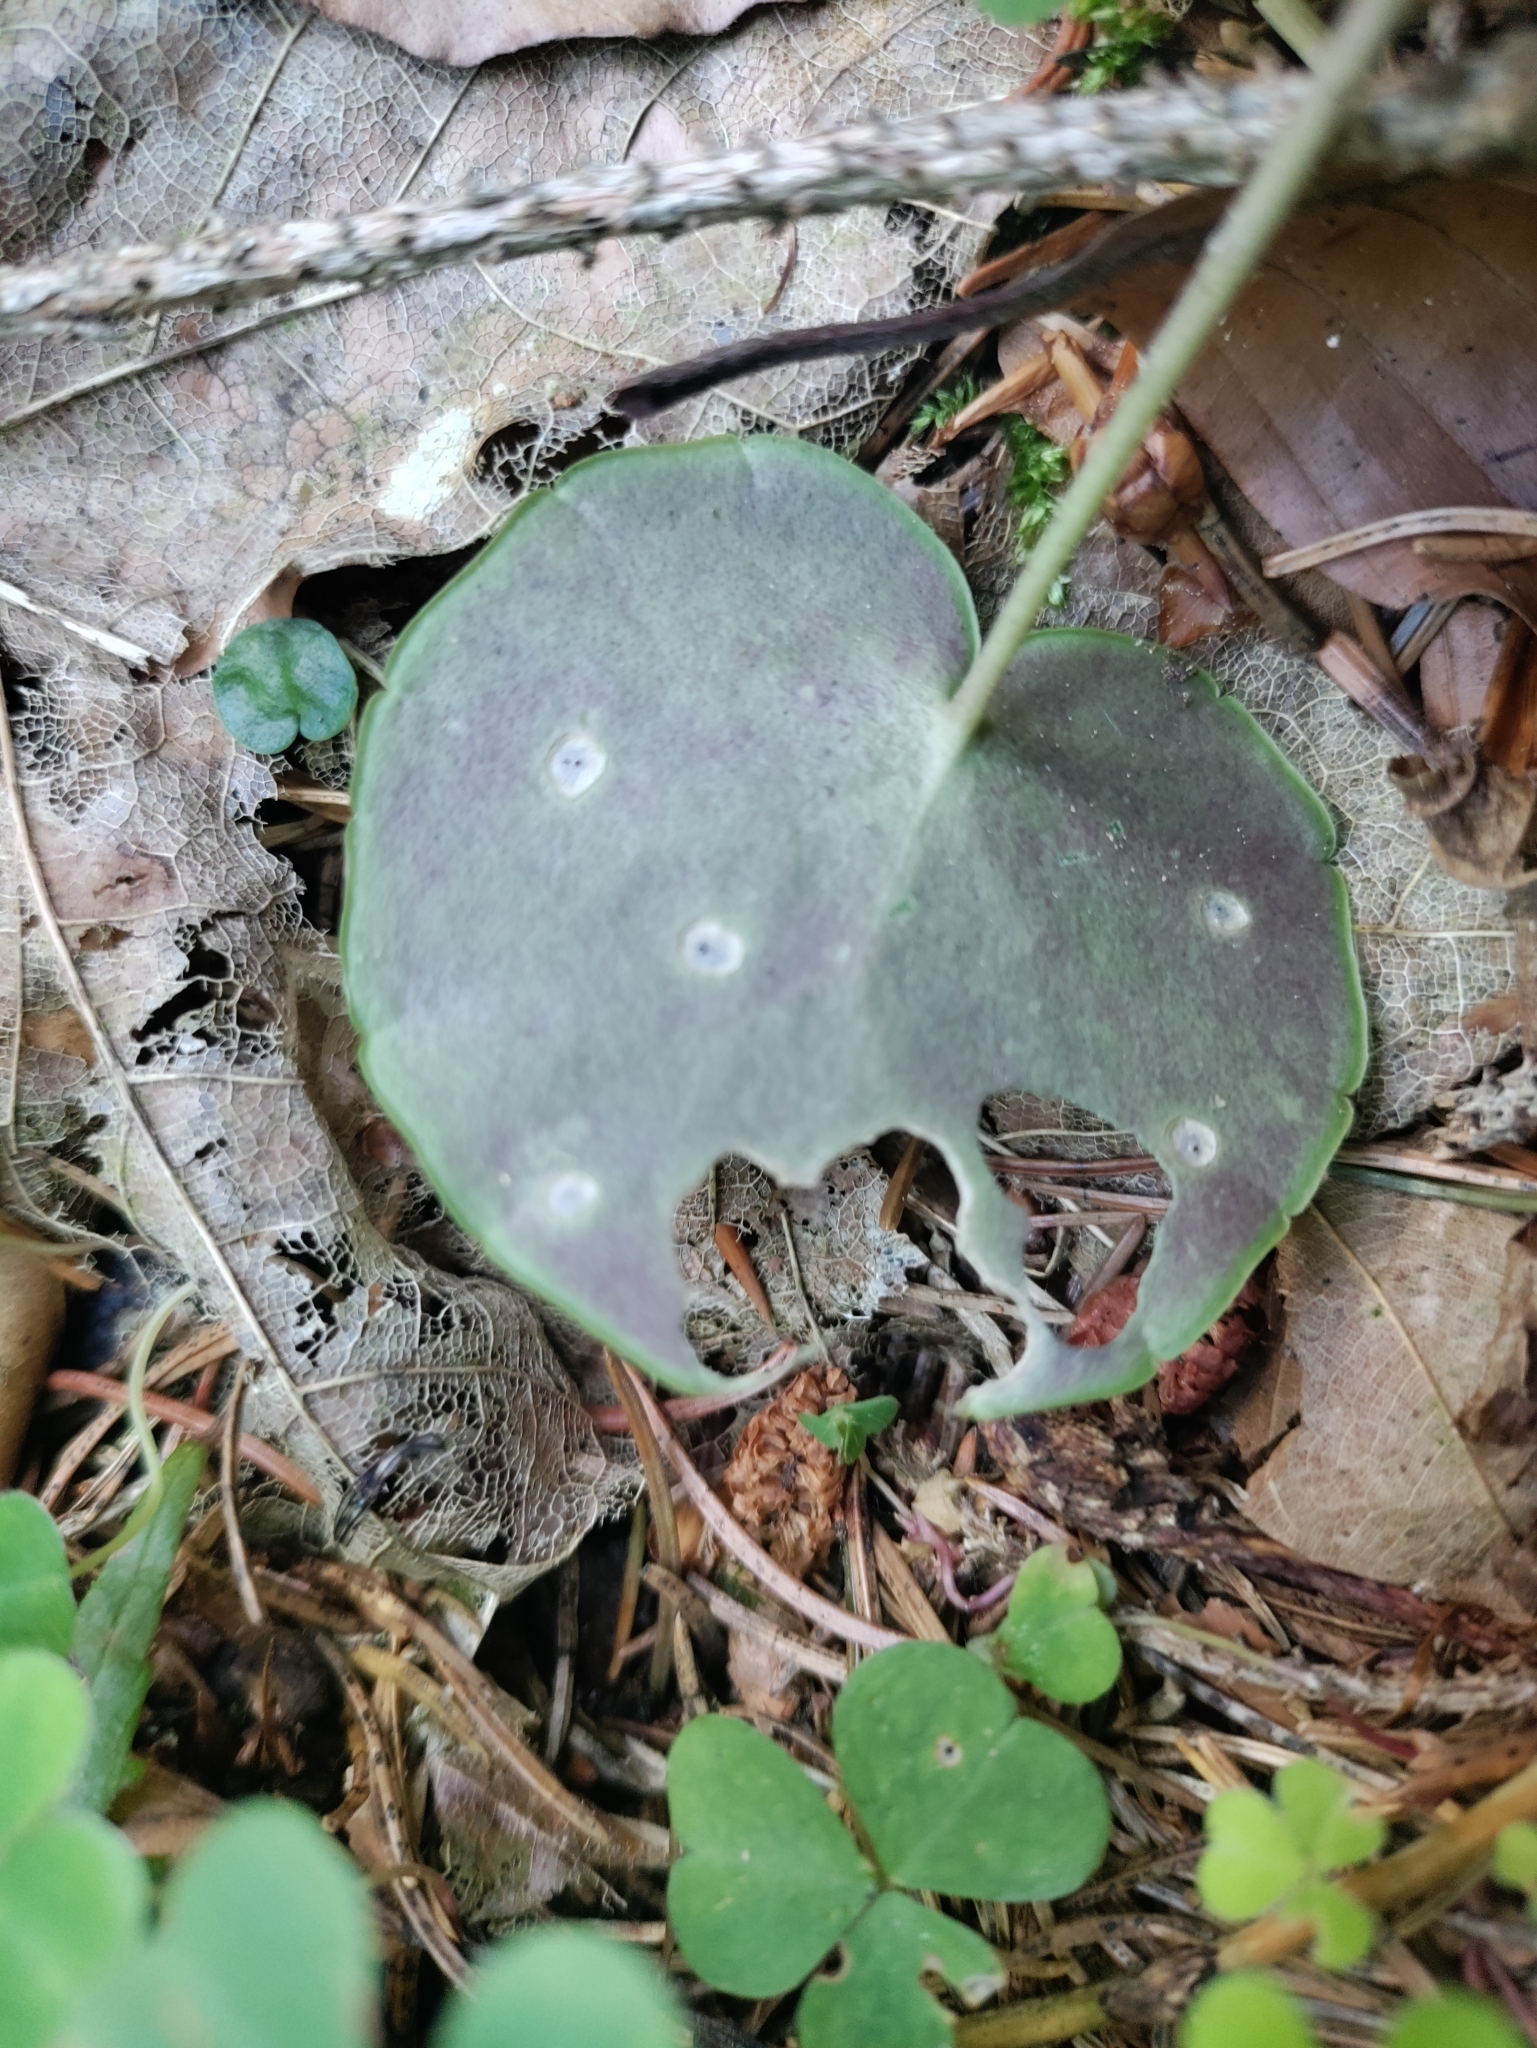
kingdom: Plantae
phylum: Tracheophyta
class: Magnoliopsida
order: Ericales
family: Primulaceae
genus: Soldanella
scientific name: Soldanella montana
